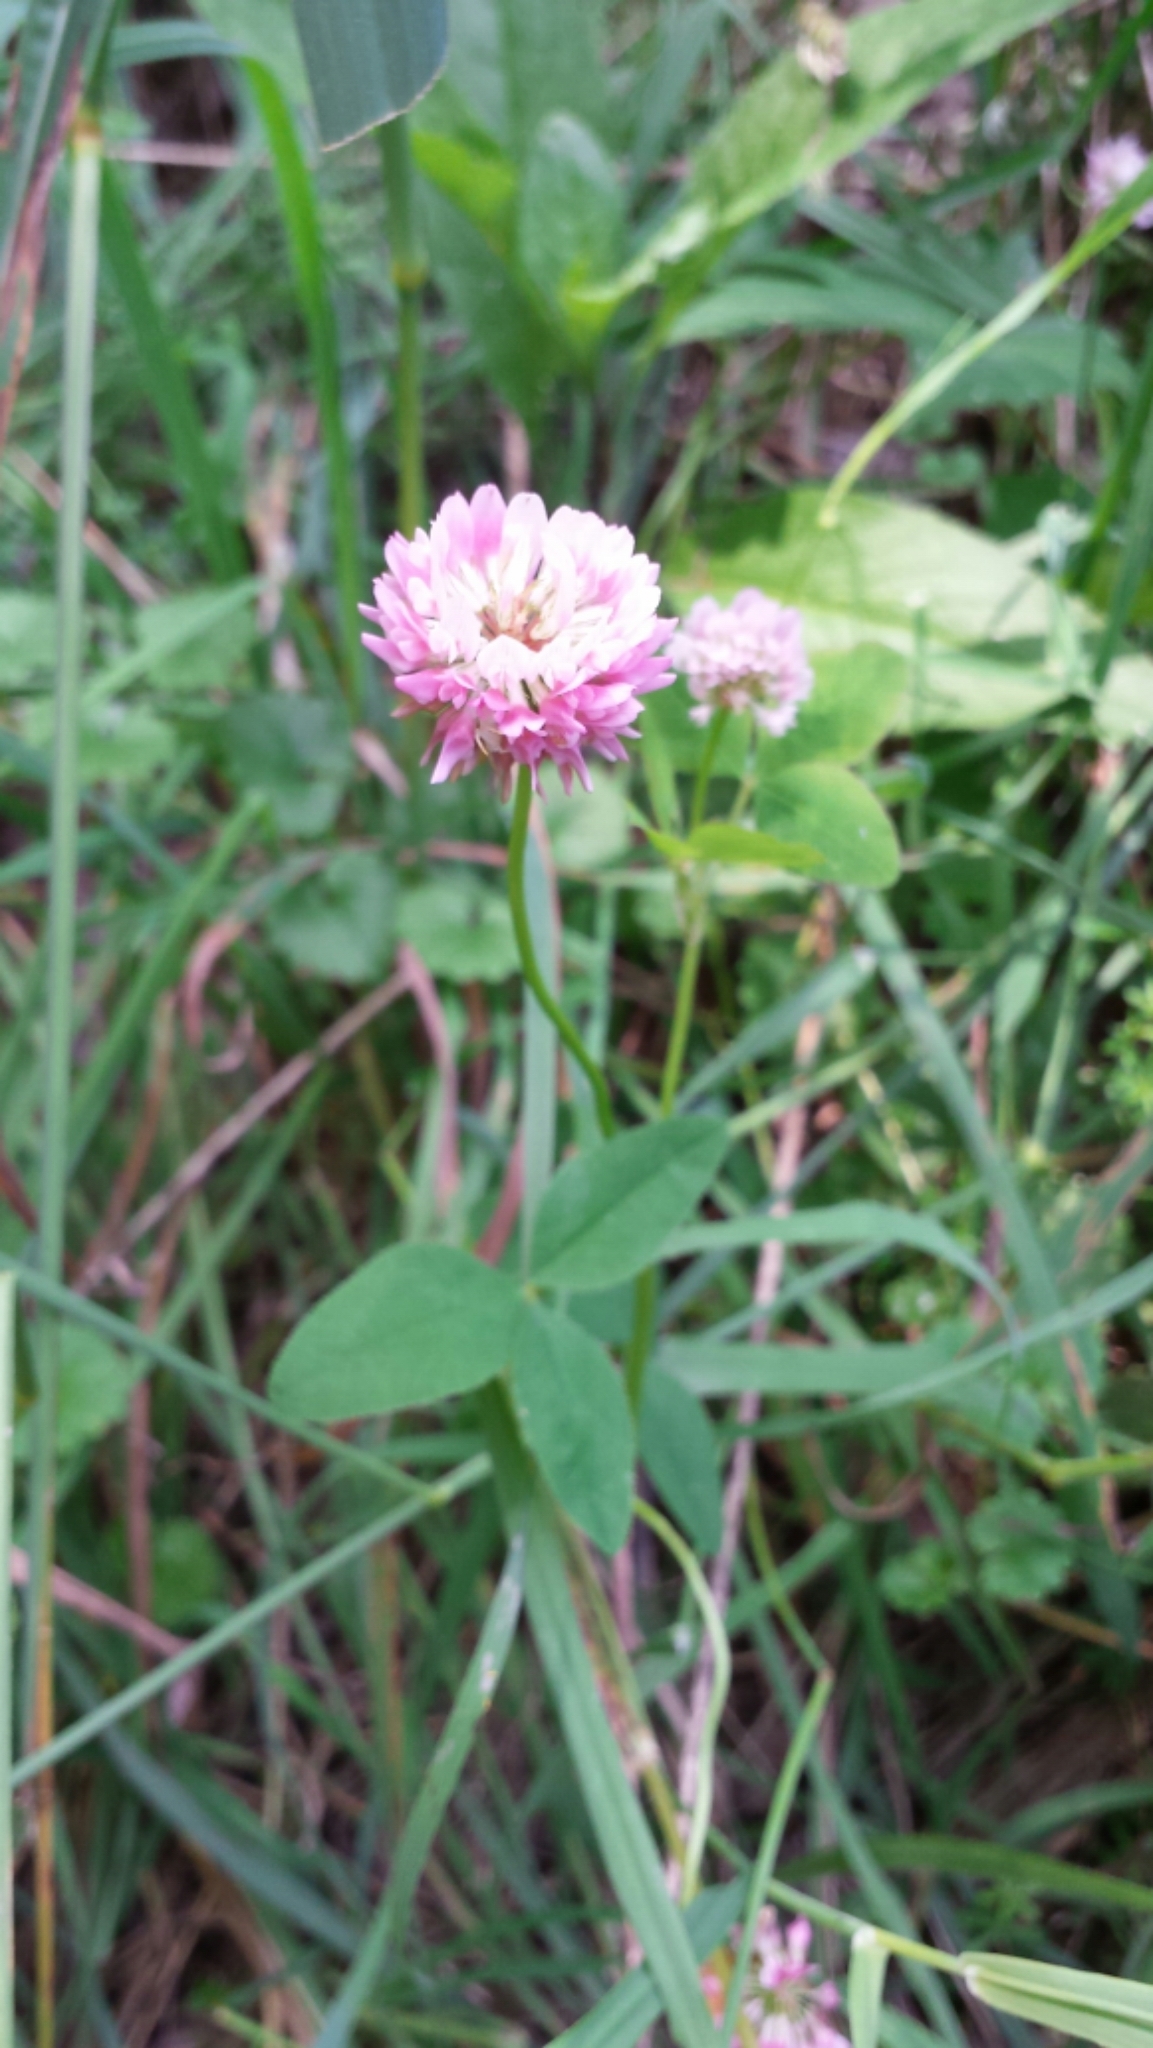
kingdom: Plantae
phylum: Tracheophyta
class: Magnoliopsida
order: Fabales
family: Fabaceae
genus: Trifolium
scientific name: Trifolium hybridum
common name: Alsike clover
